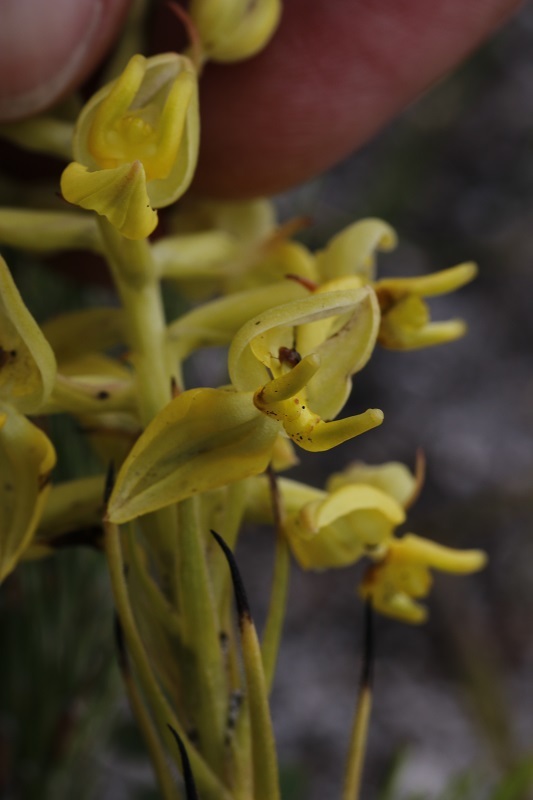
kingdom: Plantae
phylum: Tracheophyta
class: Liliopsida
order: Asparagales
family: Orchidaceae
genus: Ceratandra
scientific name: Ceratandra atrata
